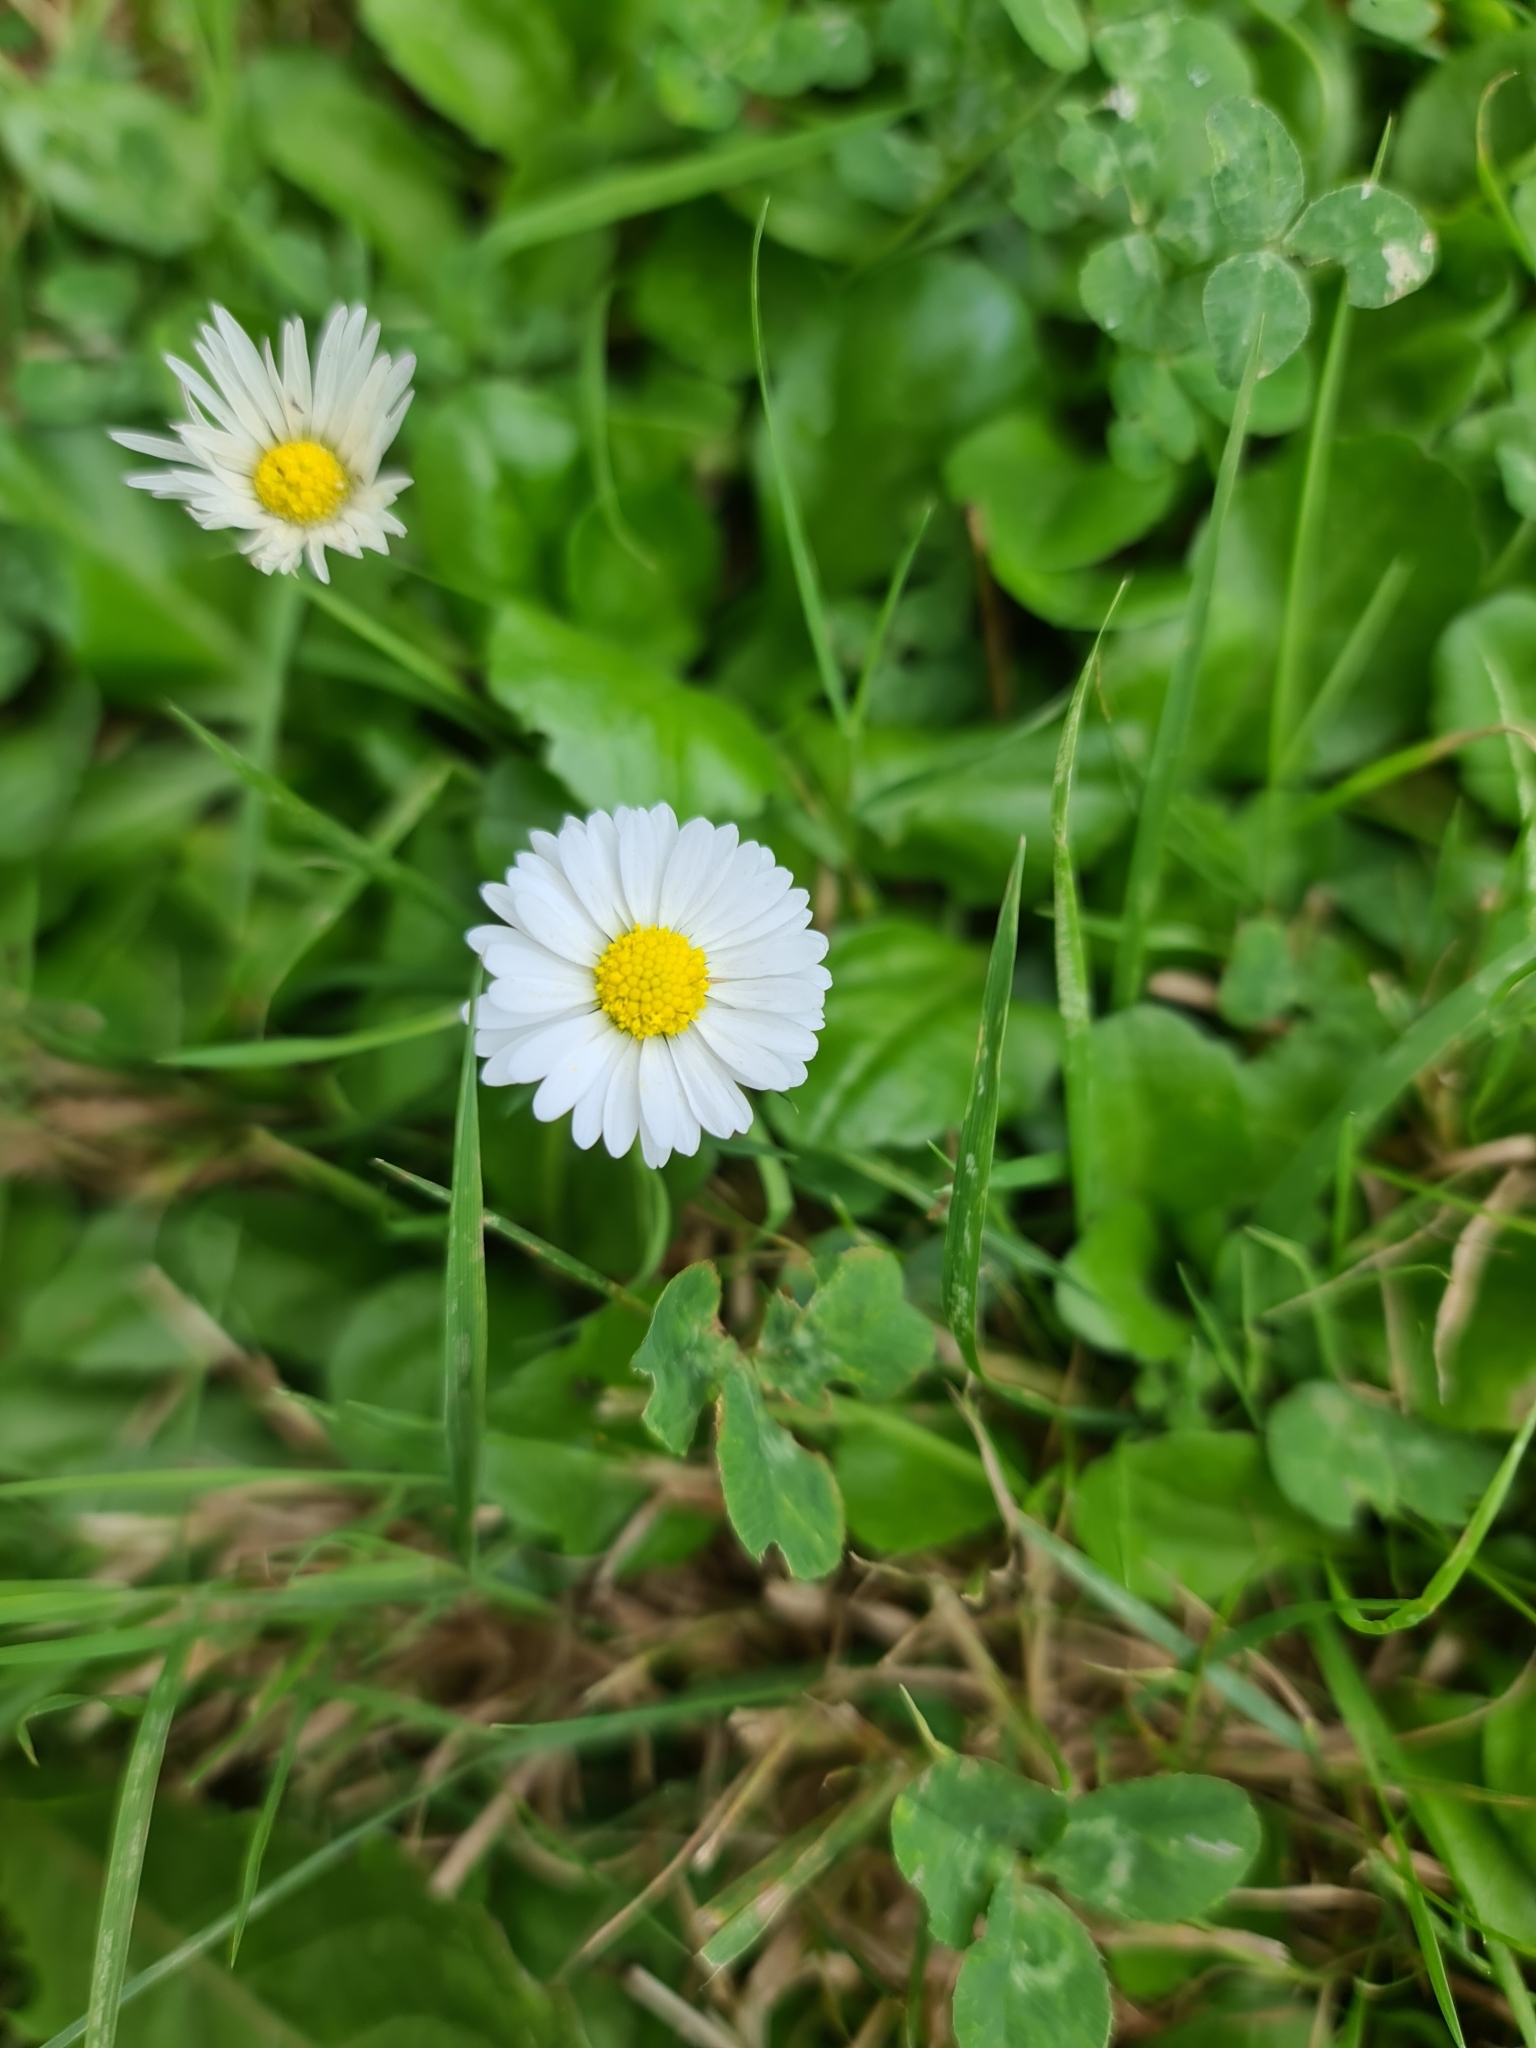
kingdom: Plantae
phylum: Tracheophyta
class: Magnoliopsida
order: Asterales
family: Asteraceae
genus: Bellis
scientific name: Bellis perennis
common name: Lawndaisy
